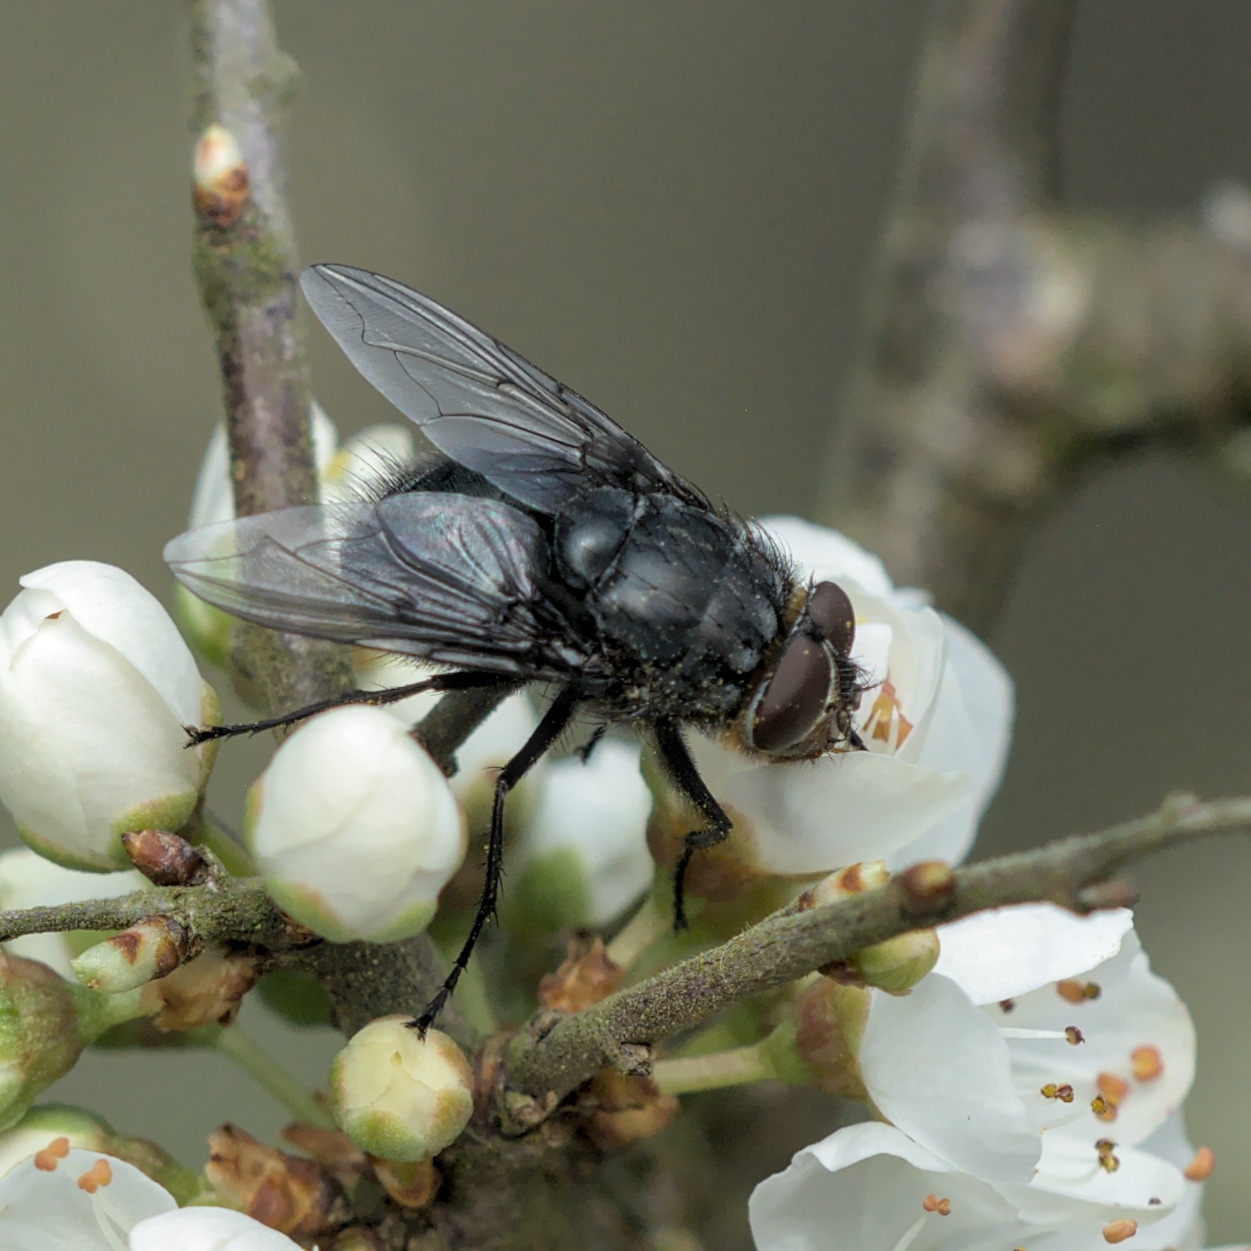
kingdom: Animalia
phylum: Arthropoda
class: Insecta
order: Diptera
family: Calliphoridae
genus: Calliphora
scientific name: Calliphora vomitoria
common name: Blue bottle fly
